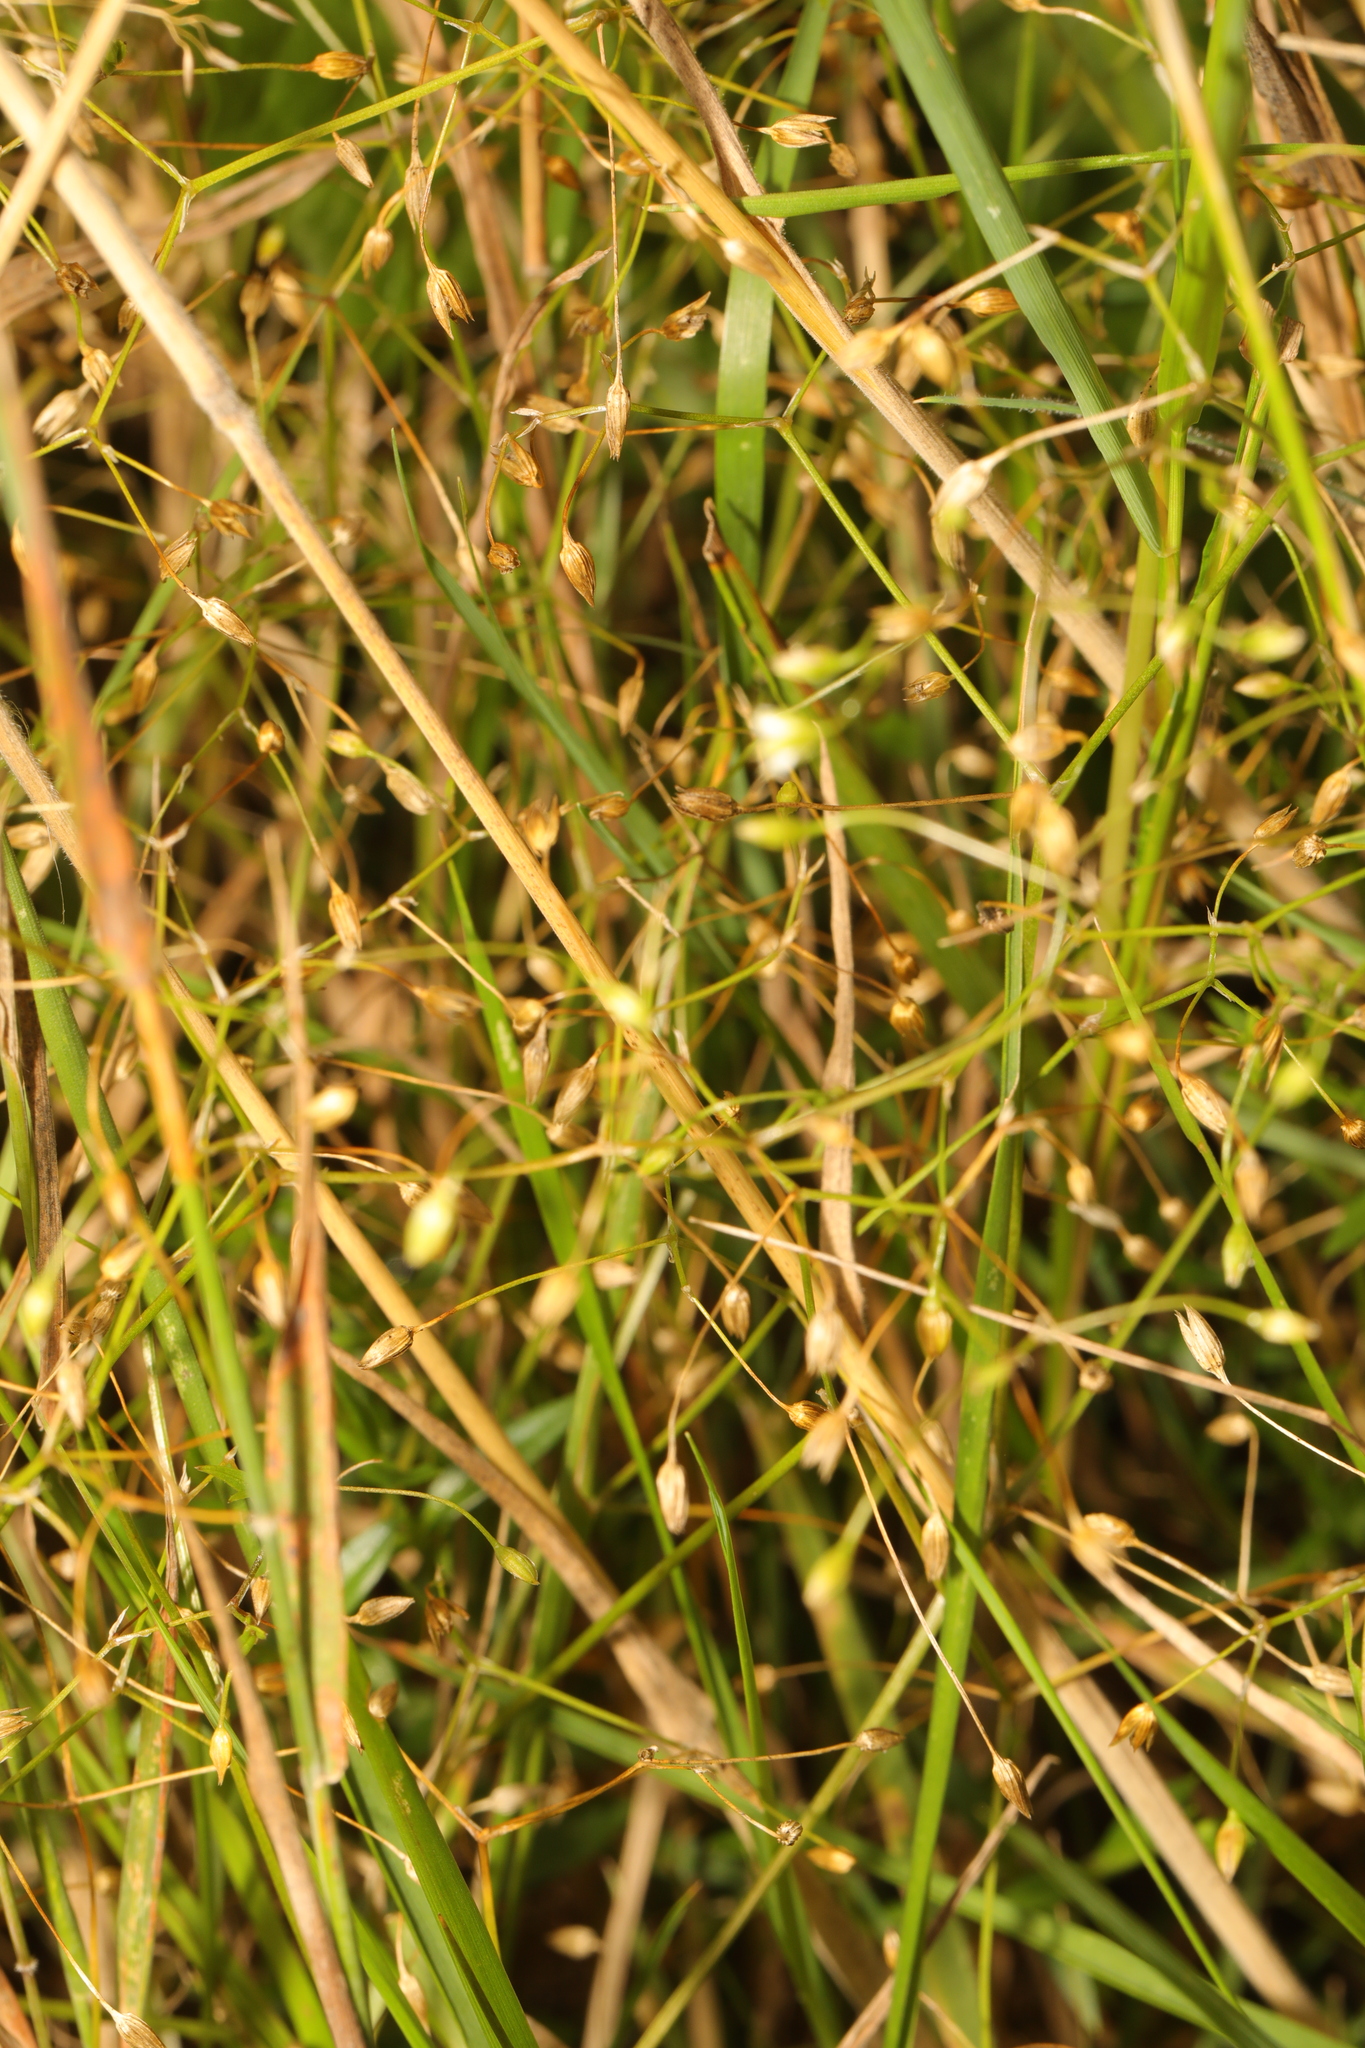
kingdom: Plantae
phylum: Tracheophyta
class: Magnoliopsida
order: Caryophyllales
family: Caryophyllaceae
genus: Stellaria
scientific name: Stellaria graminea
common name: Grass-like starwort
